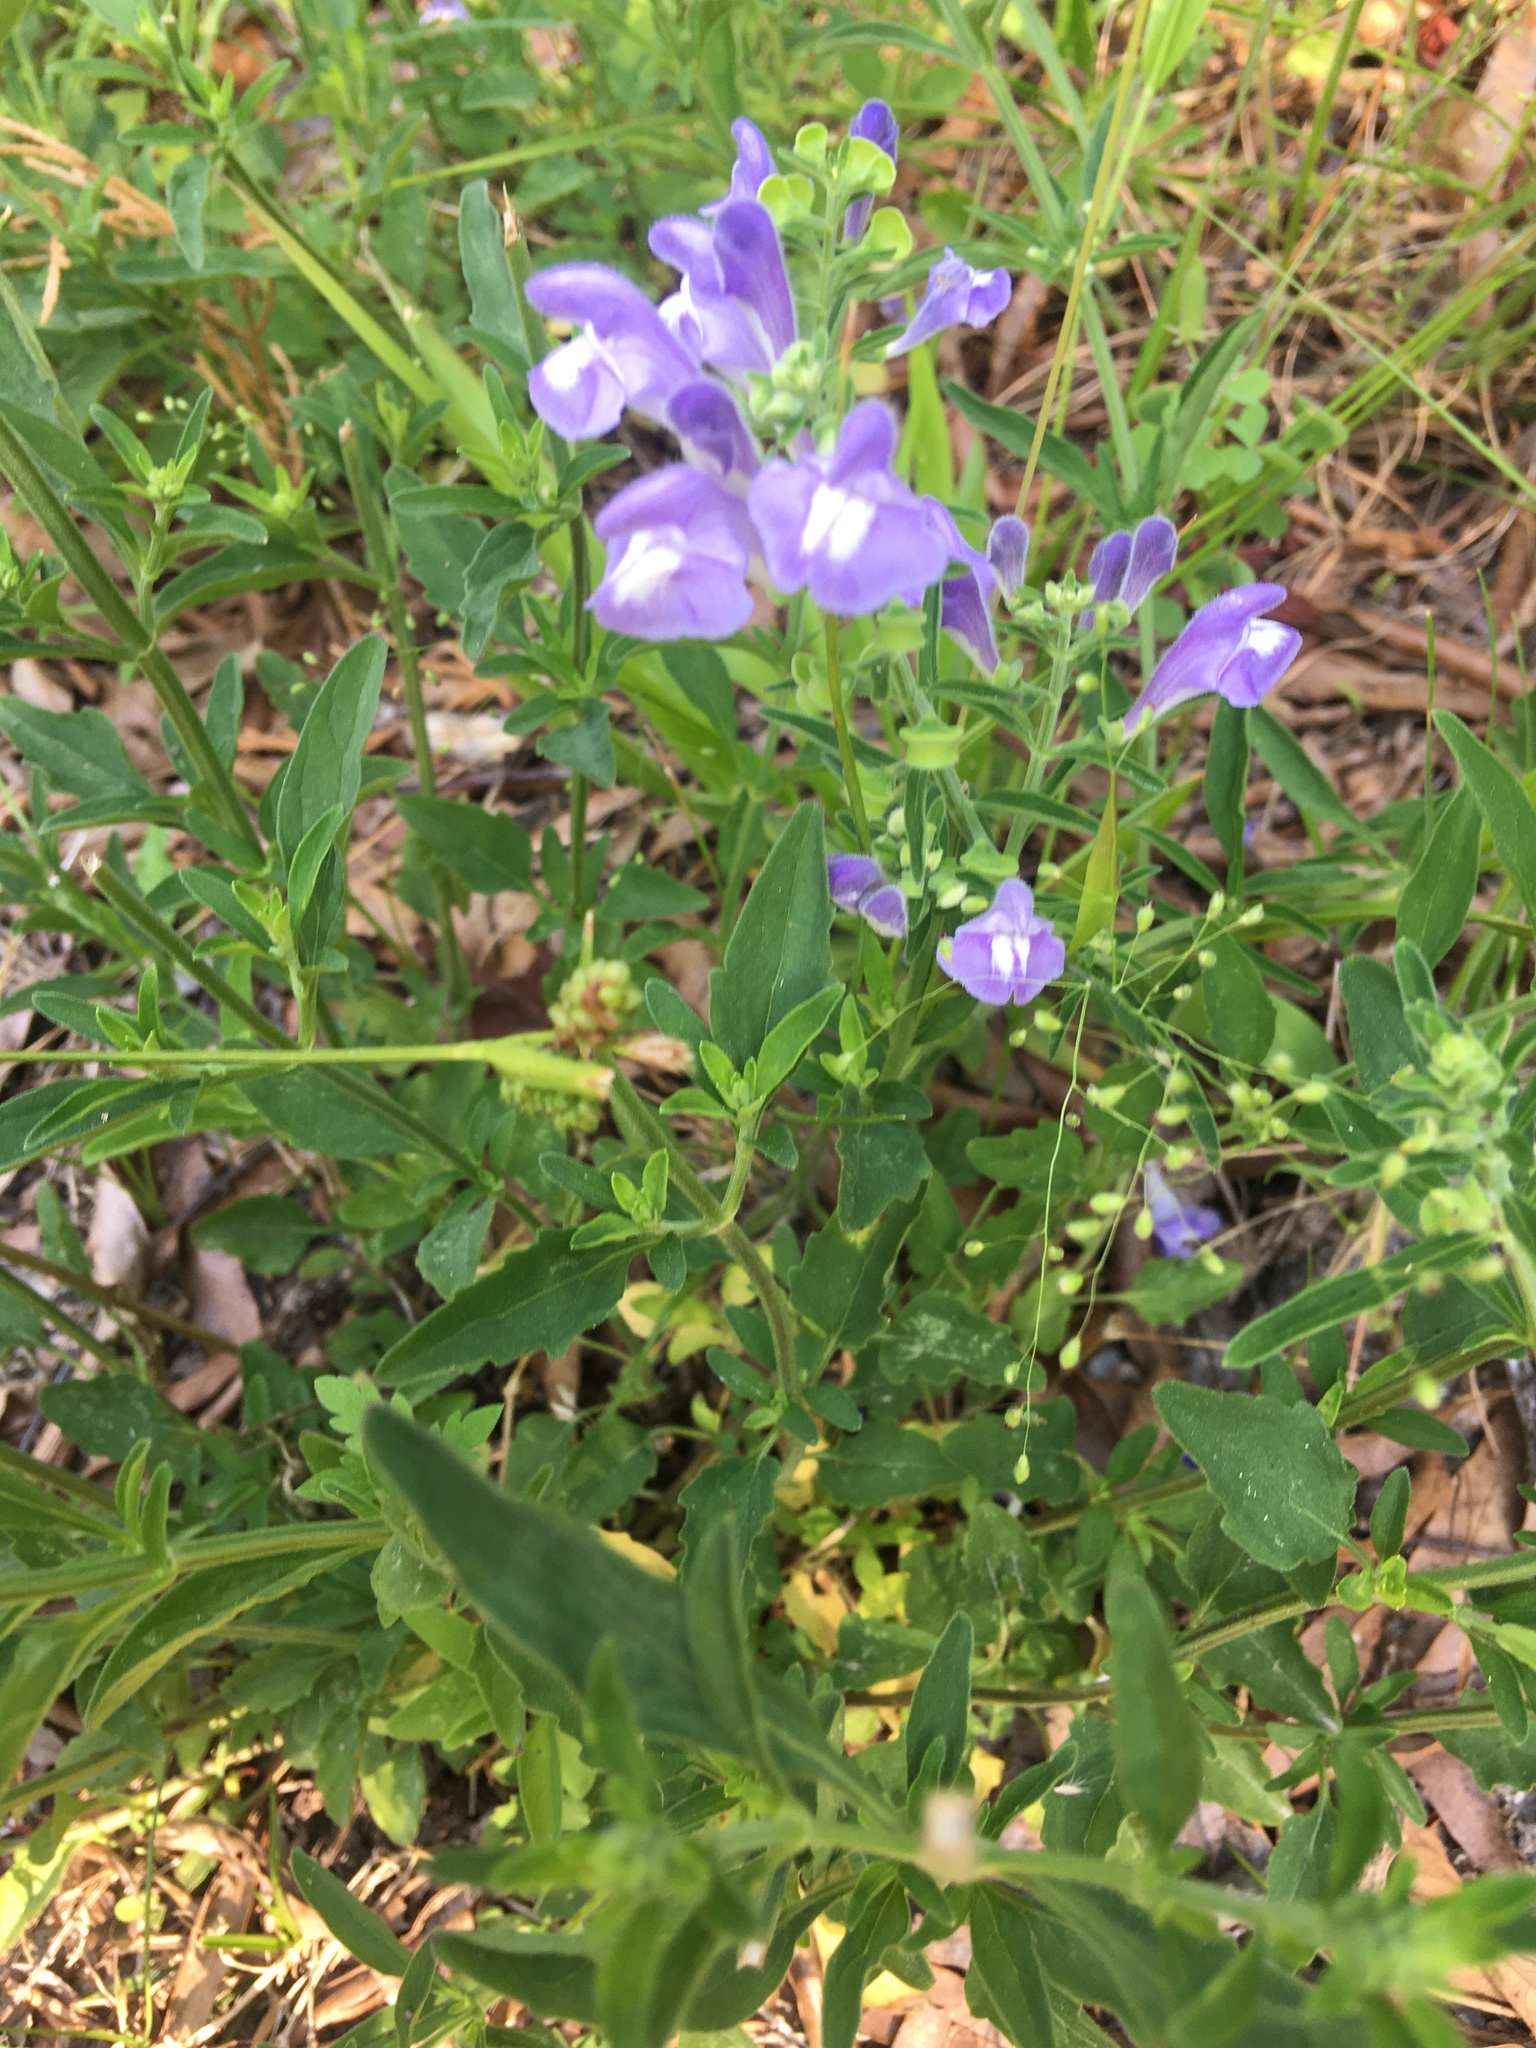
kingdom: Plantae
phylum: Tracheophyta
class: Magnoliopsida
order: Lamiales
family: Lamiaceae
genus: Scutellaria
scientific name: Scutellaria integrifolia
